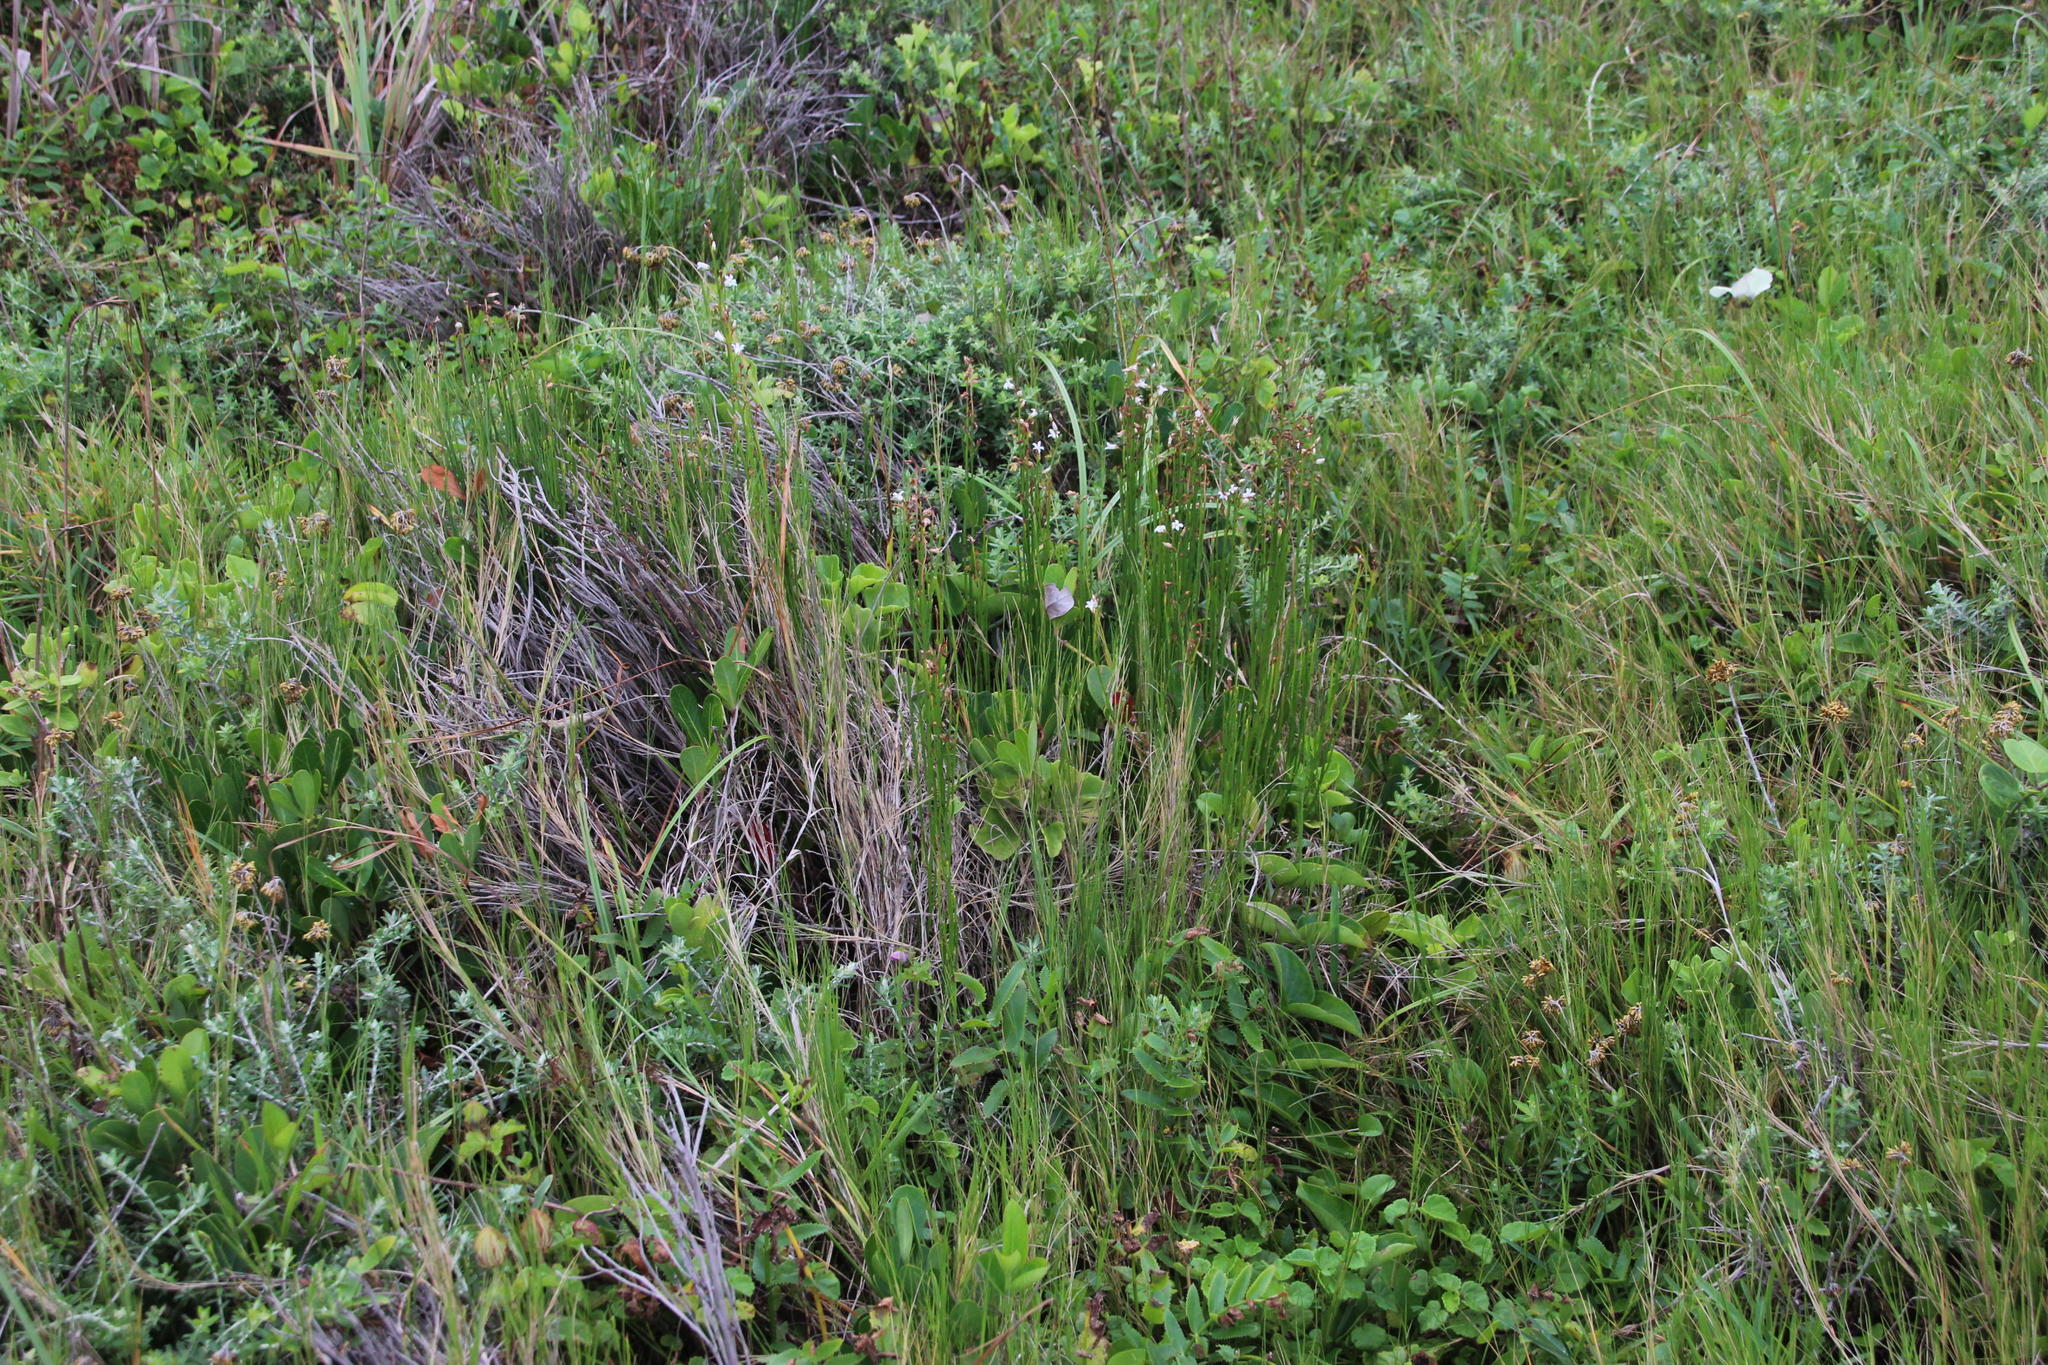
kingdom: Plantae
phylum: Tracheophyta
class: Magnoliopsida
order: Ericales
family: Primulaceae
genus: Samolus
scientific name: Samolus porosus
